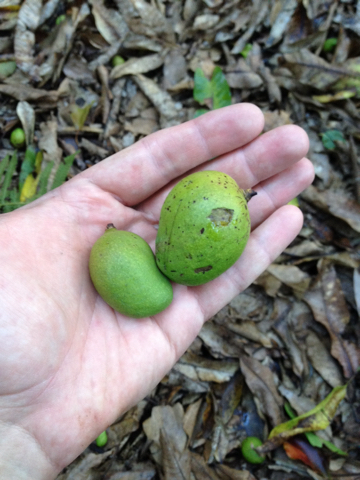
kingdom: Plantae
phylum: Tracheophyta
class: Magnoliopsida
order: Sapindales
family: Anacardiaceae
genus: Mangifera
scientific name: Mangifera indica
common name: Mango
